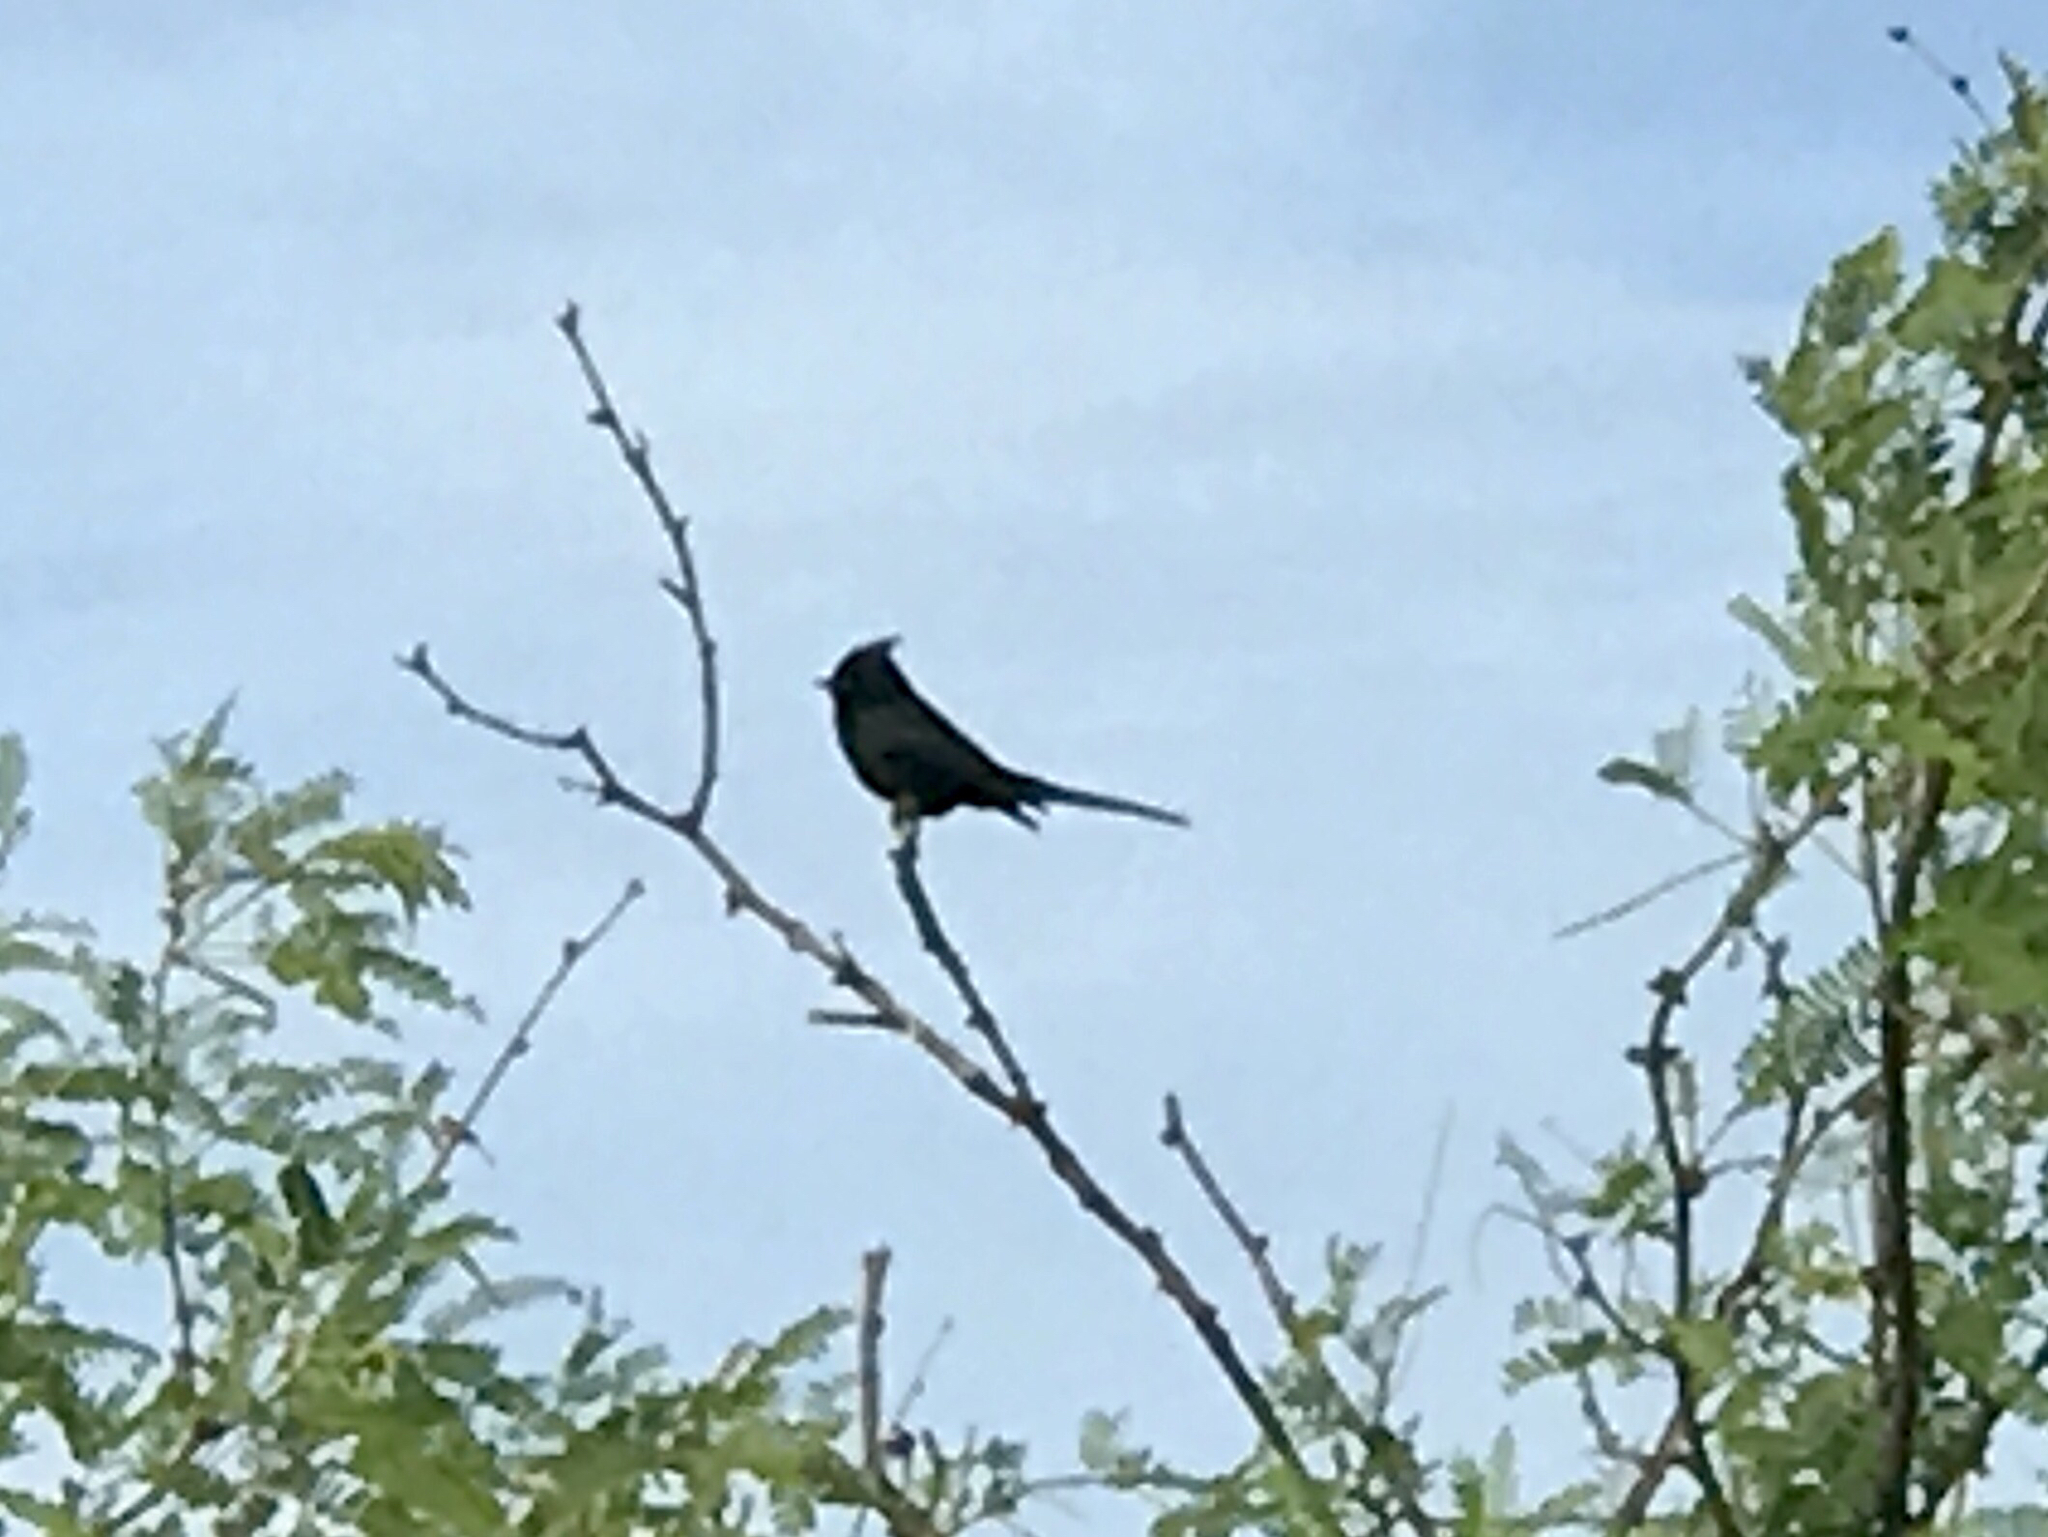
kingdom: Animalia
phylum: Chordata
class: Aves
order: Passeriformes
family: Ptilogonatidae
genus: Phainopepla
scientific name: Phainopepla nitens
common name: Phainopepla
